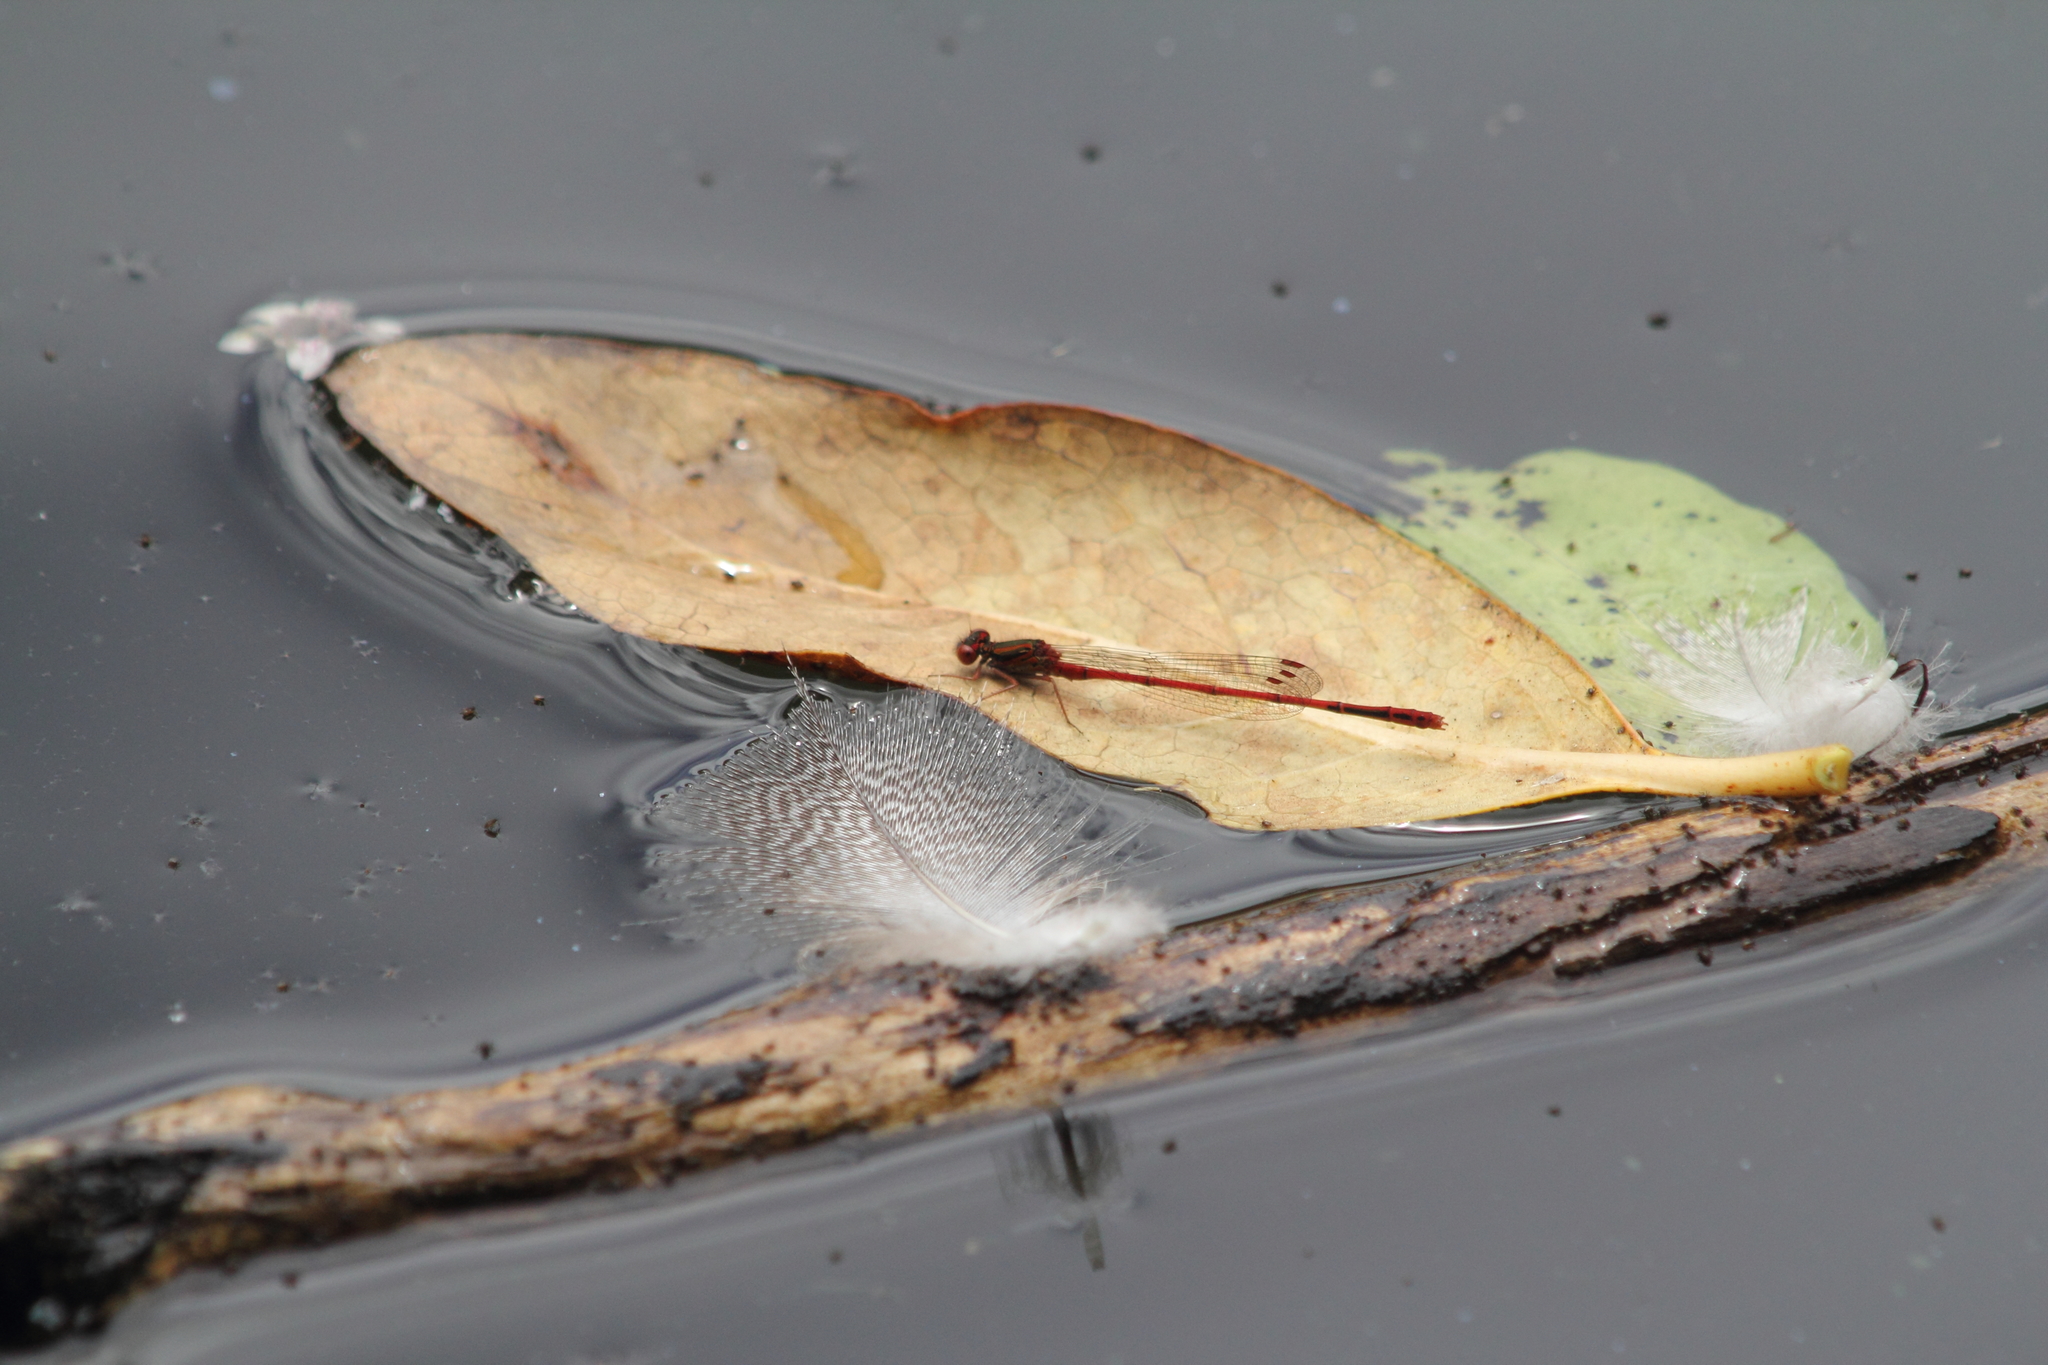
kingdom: Animalia
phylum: Arthropoda
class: Insecta
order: Odonata
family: Coenagrionidae
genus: Xanthocnemis
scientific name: Xanthocnemis zealandica
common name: Common redcoat damselfly
